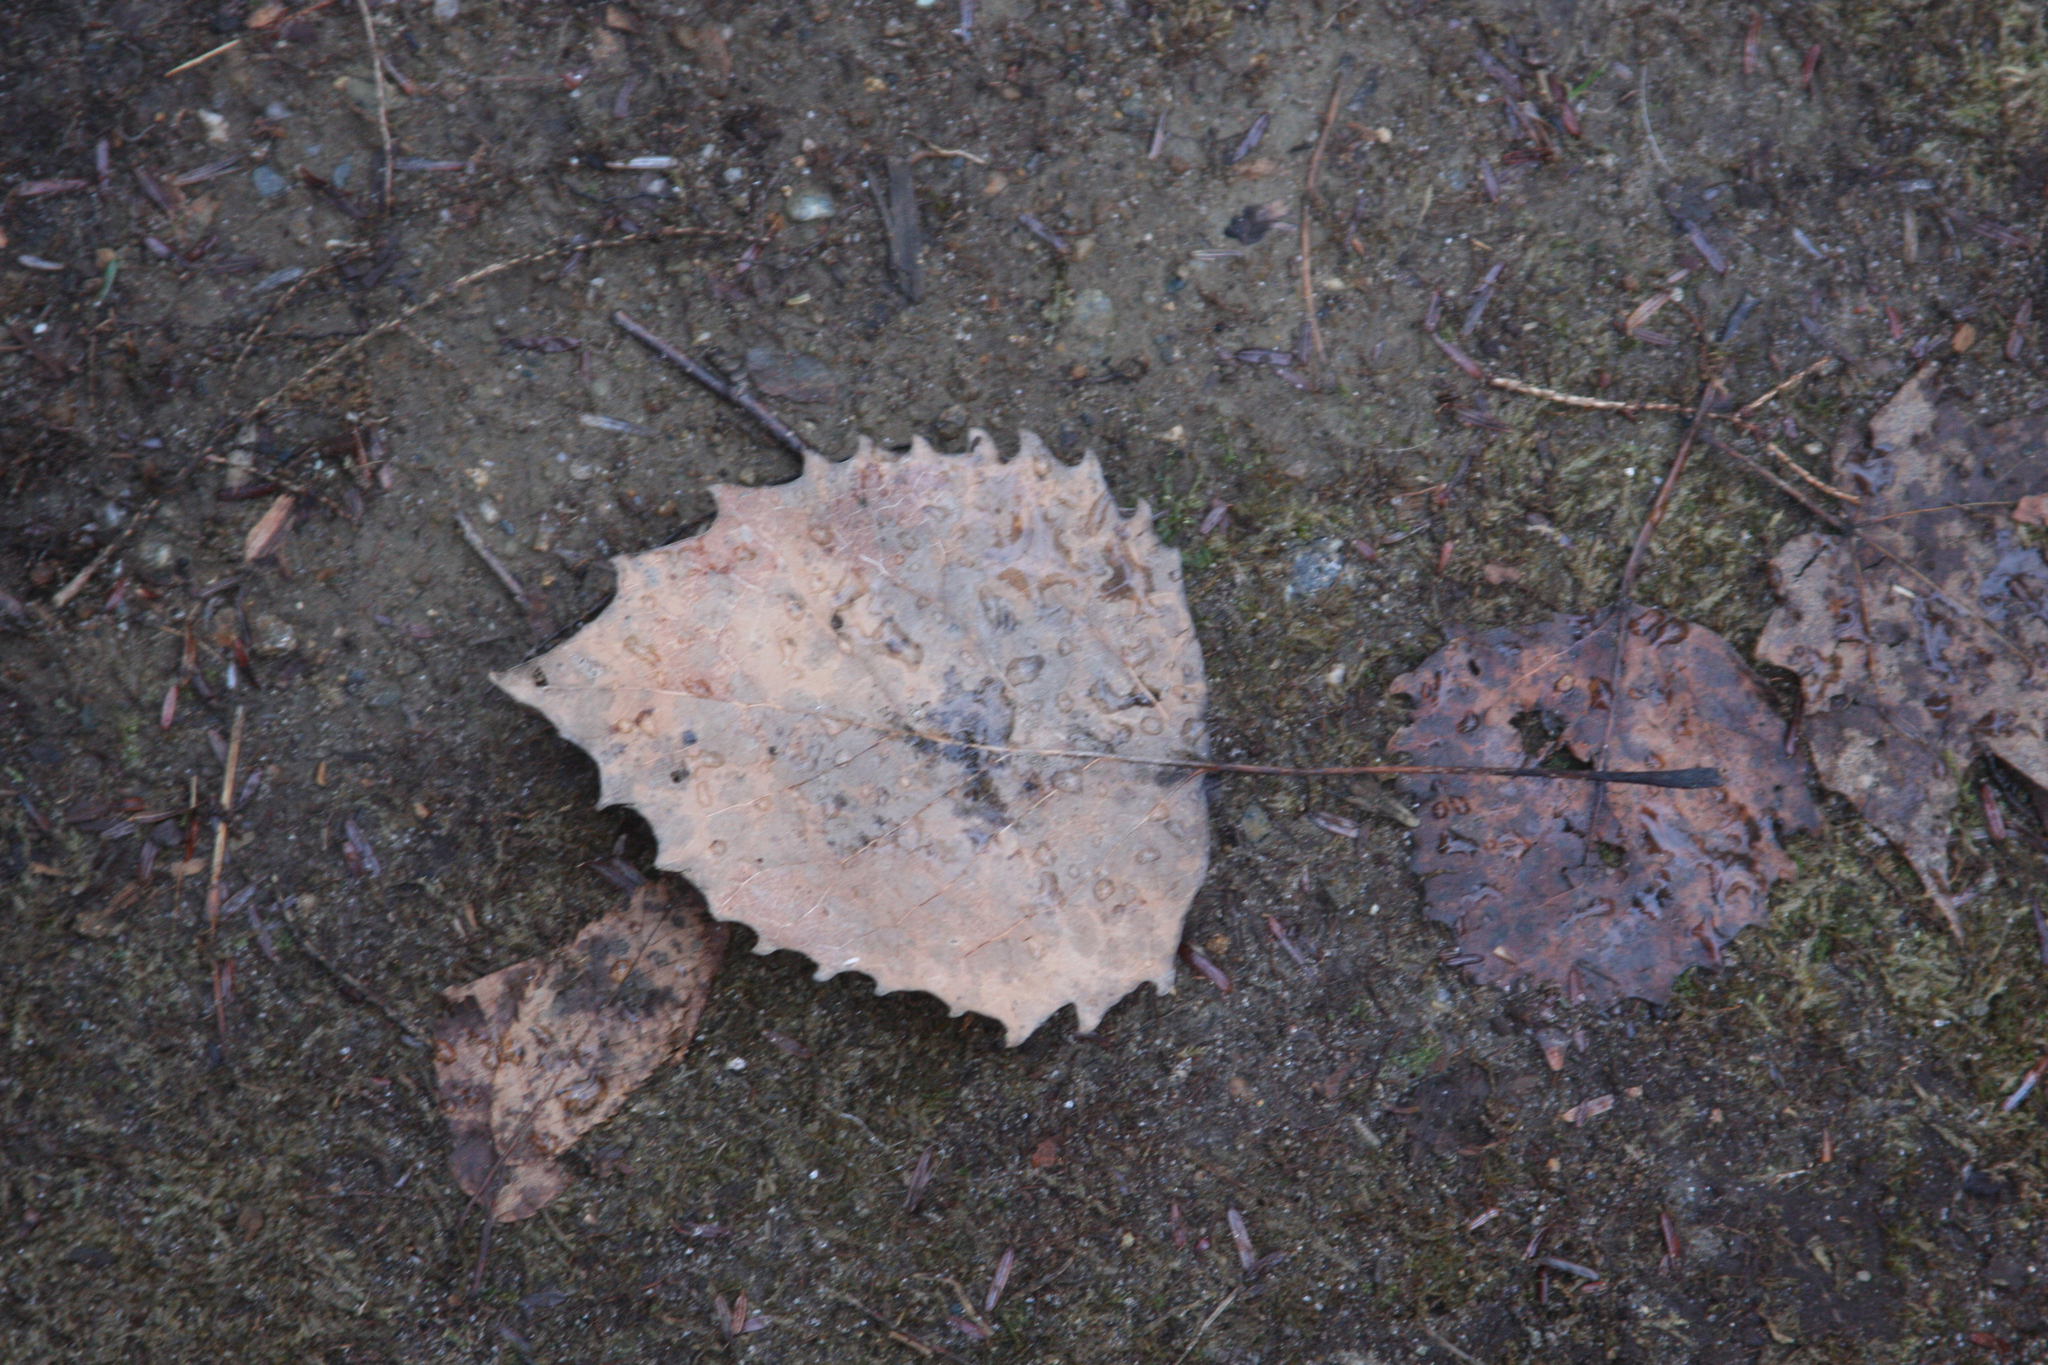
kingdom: Plantae
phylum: Tracheophyta
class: Magnoliopsida
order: Malpighiales
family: Salicaceae
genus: Populus
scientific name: Populus grandidentata
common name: Bigtooth aspen
